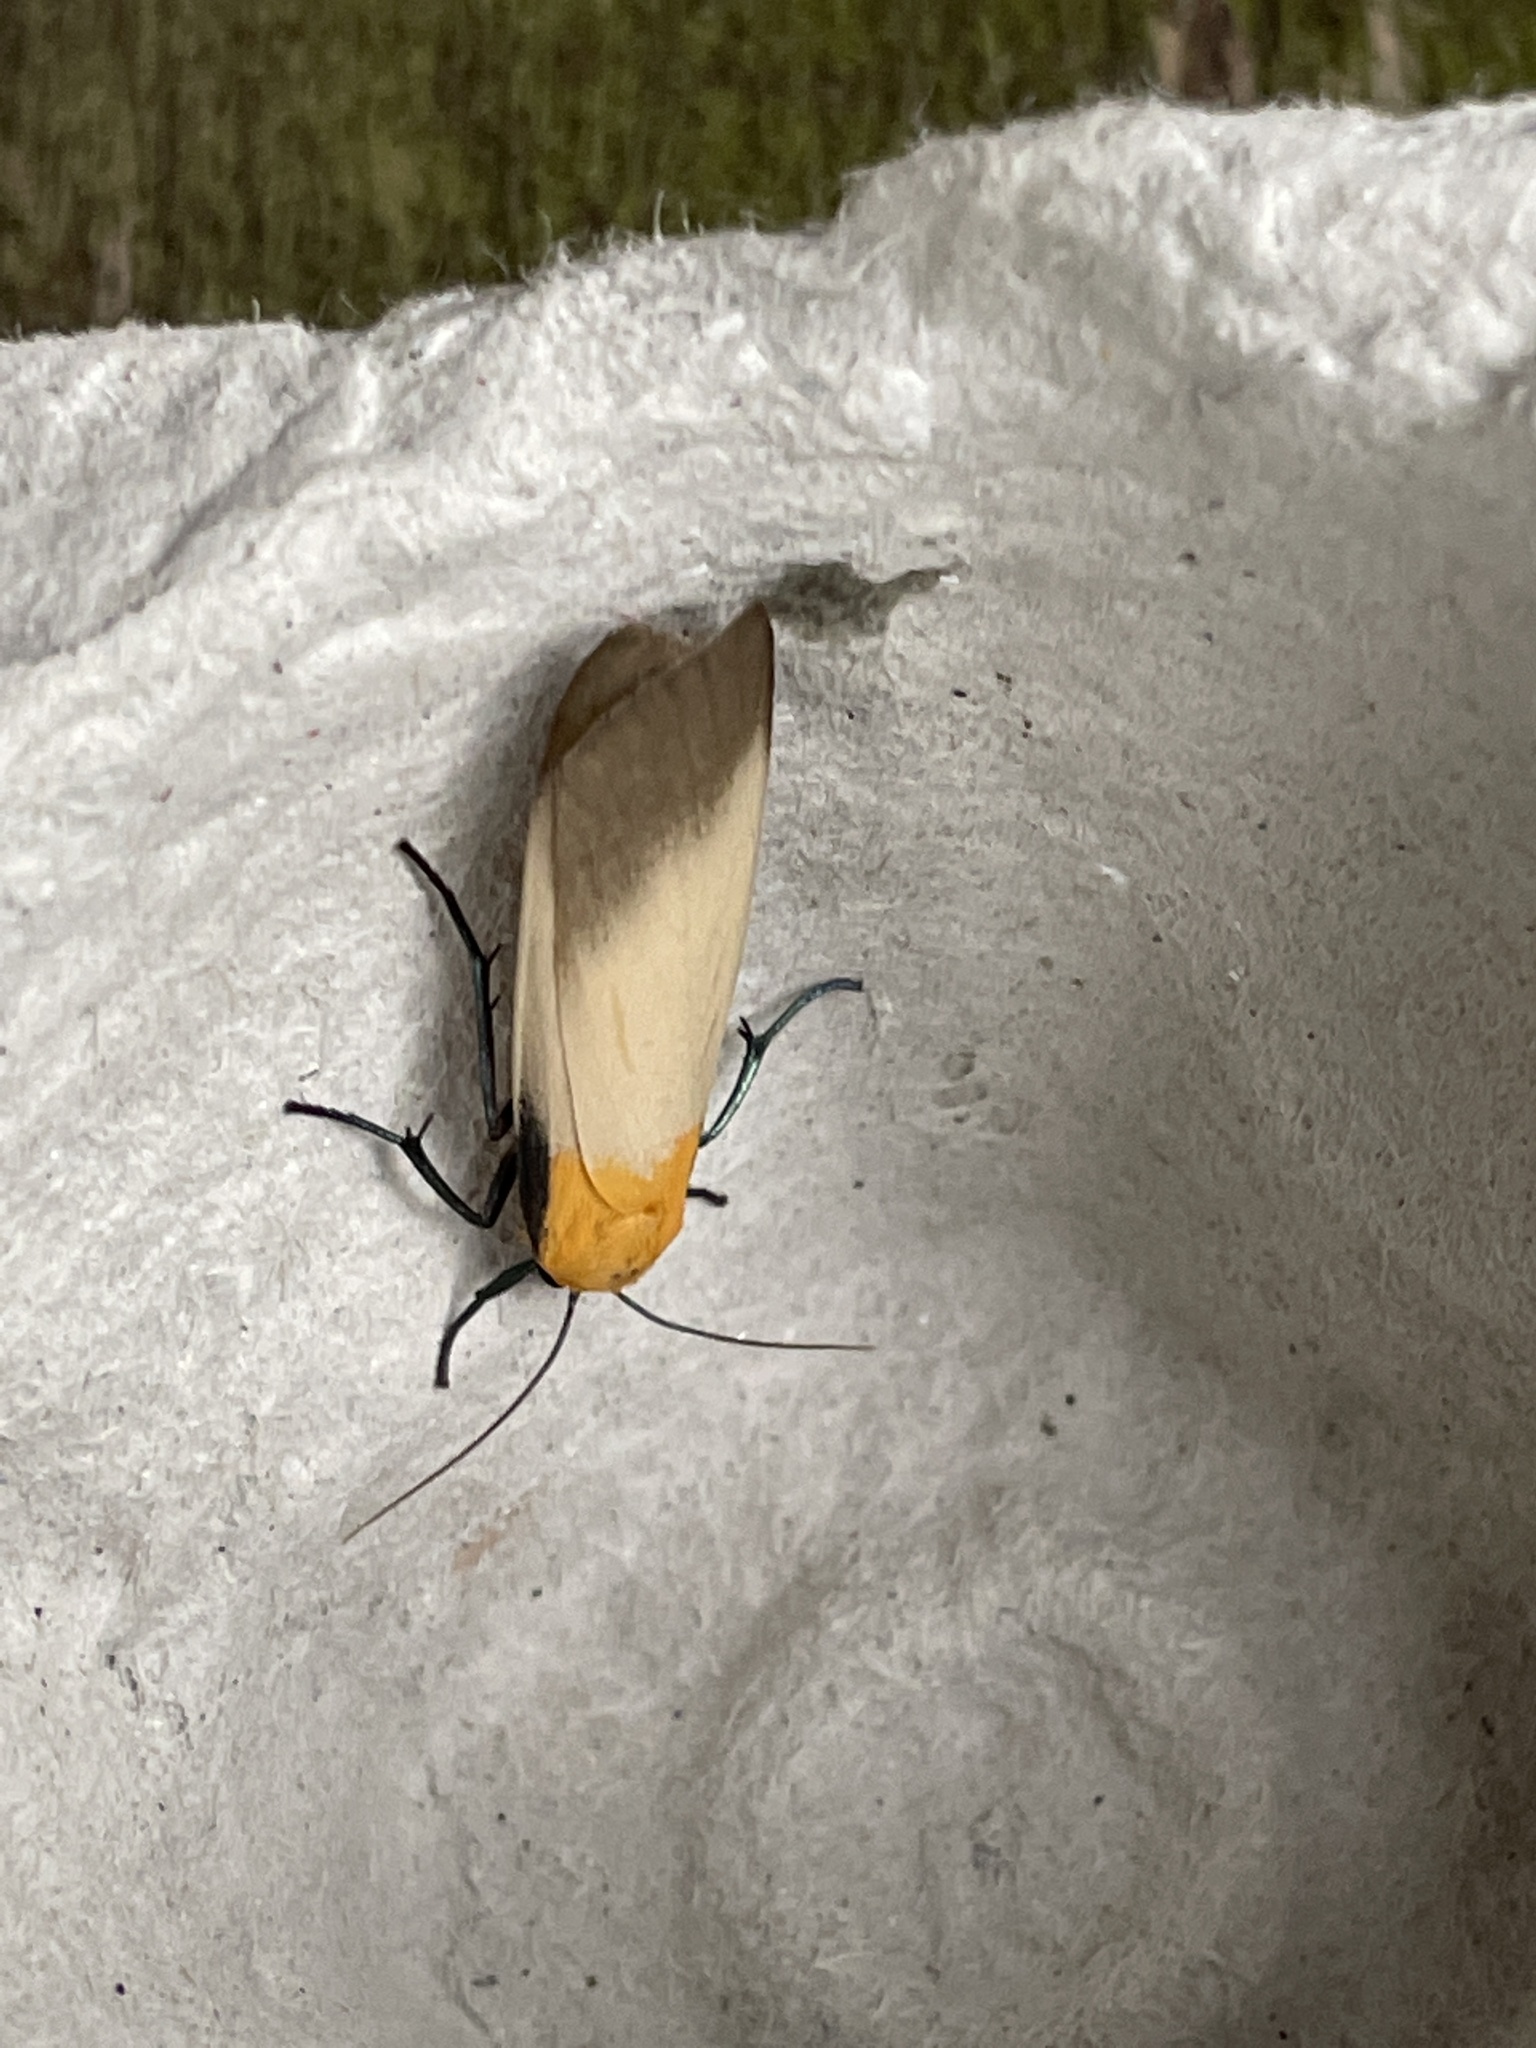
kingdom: Animalia
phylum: Arthropoda
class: Insecta
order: Lepidoptera
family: Erebidae
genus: Lithosia
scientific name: Lithosia quadra
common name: Four-spotted footman
